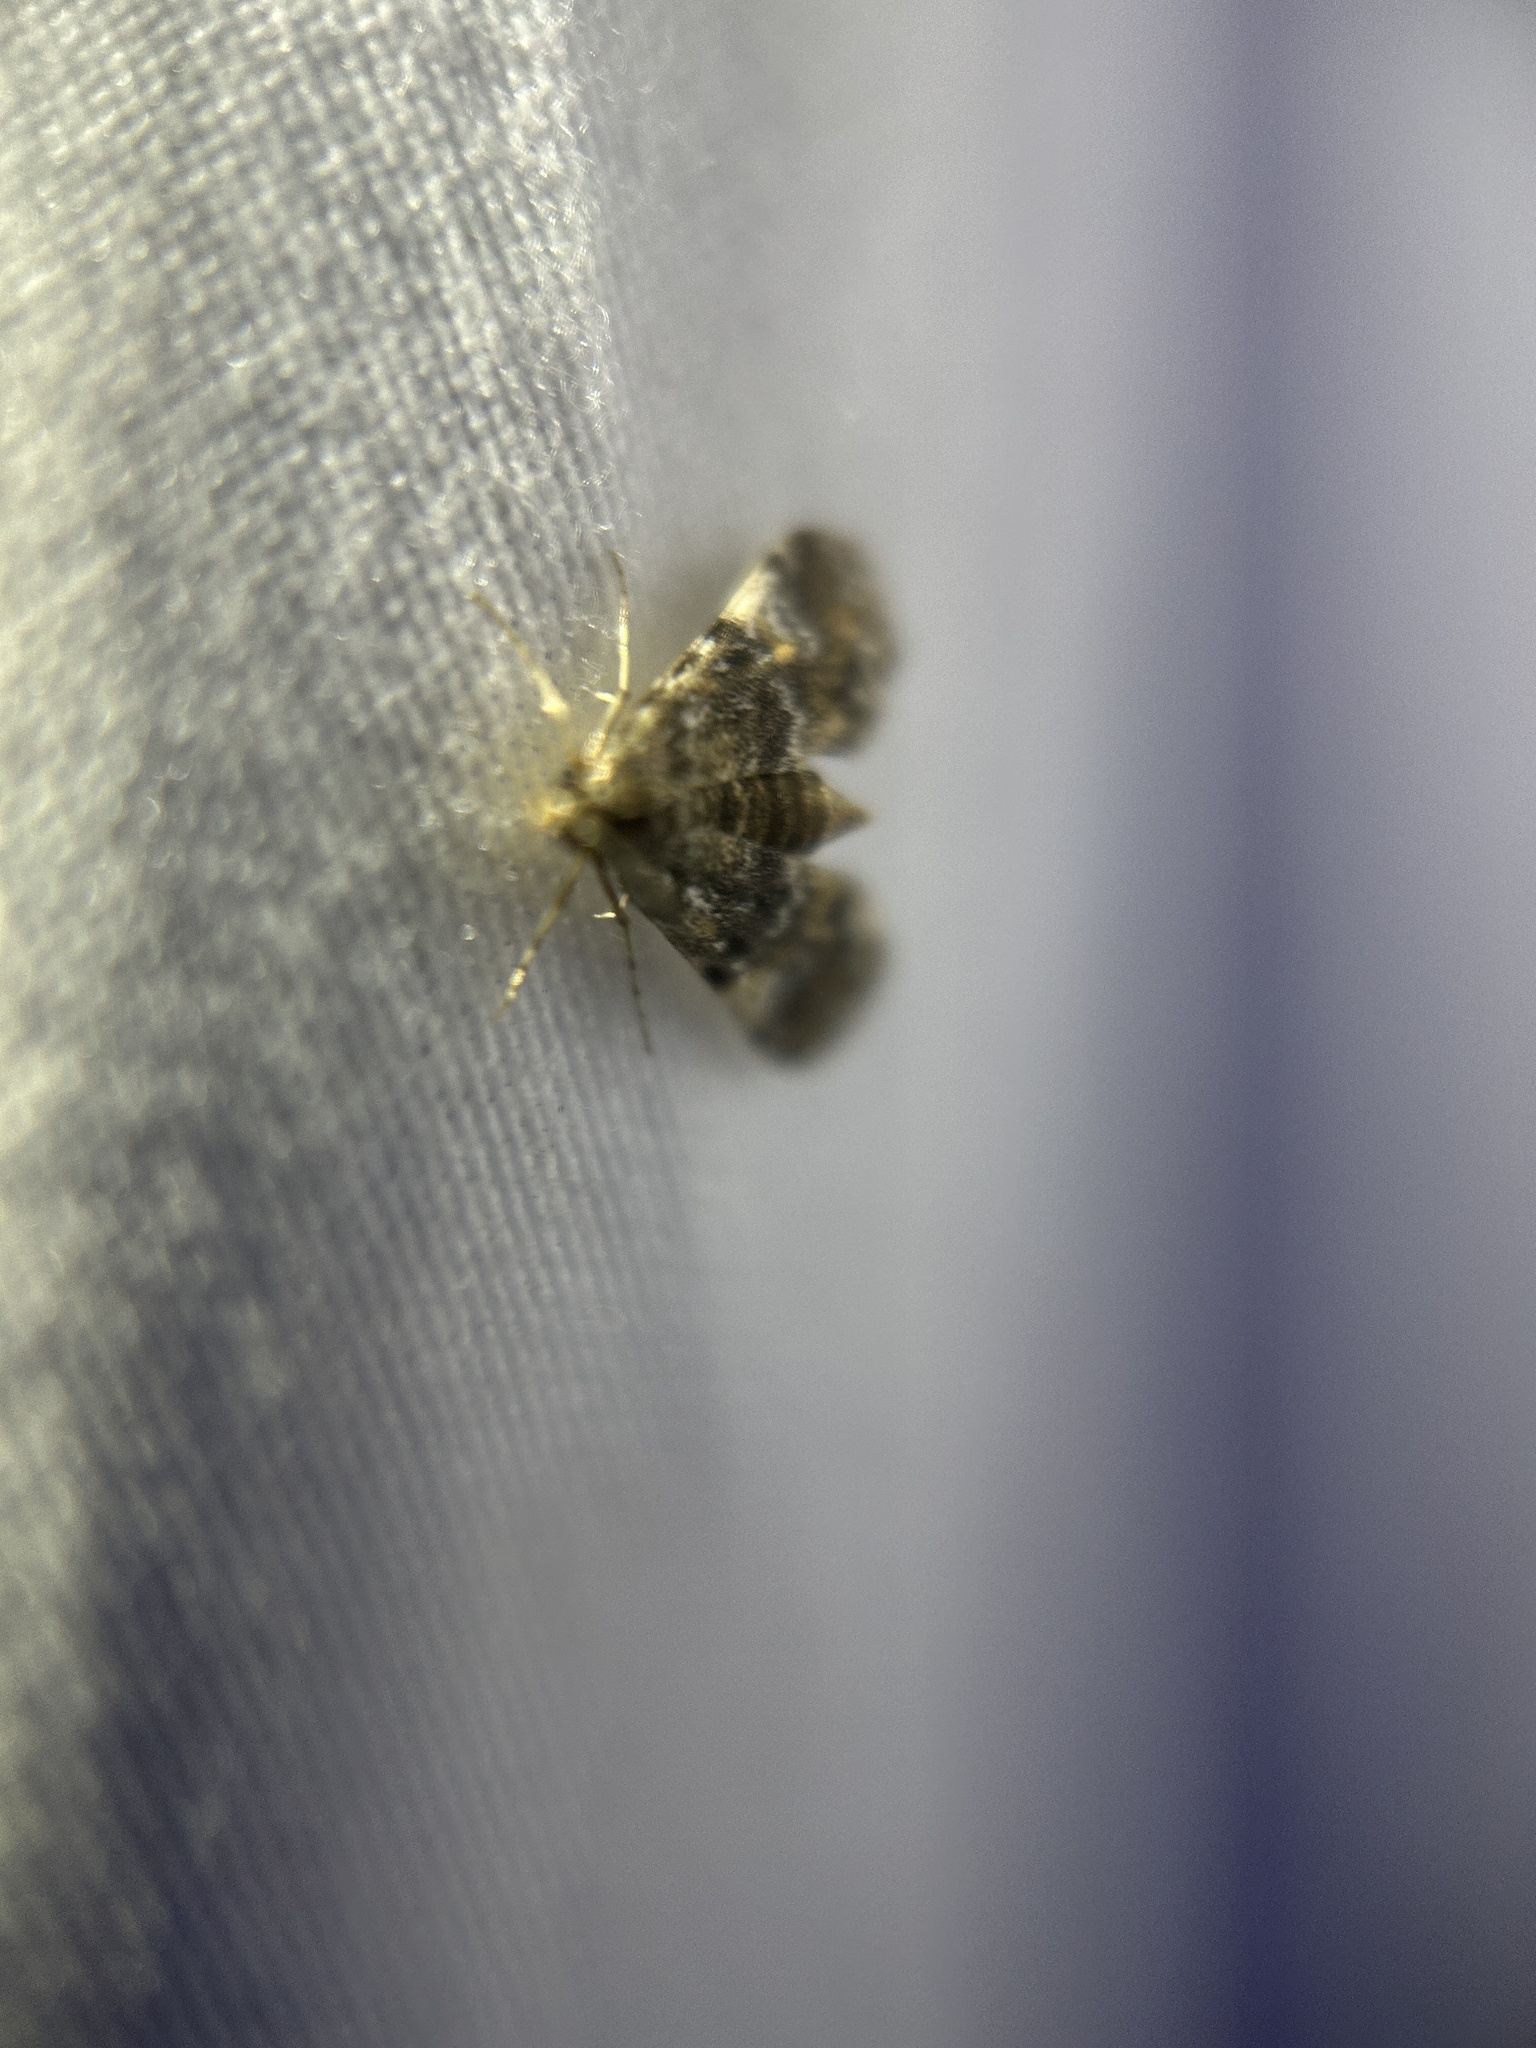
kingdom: Animalia
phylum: Arthropoda
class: Insecta
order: Lepidoptera
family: Crambidae
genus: Elophila
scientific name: Elophila obliteralis
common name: Waterlily leafcutter moth
